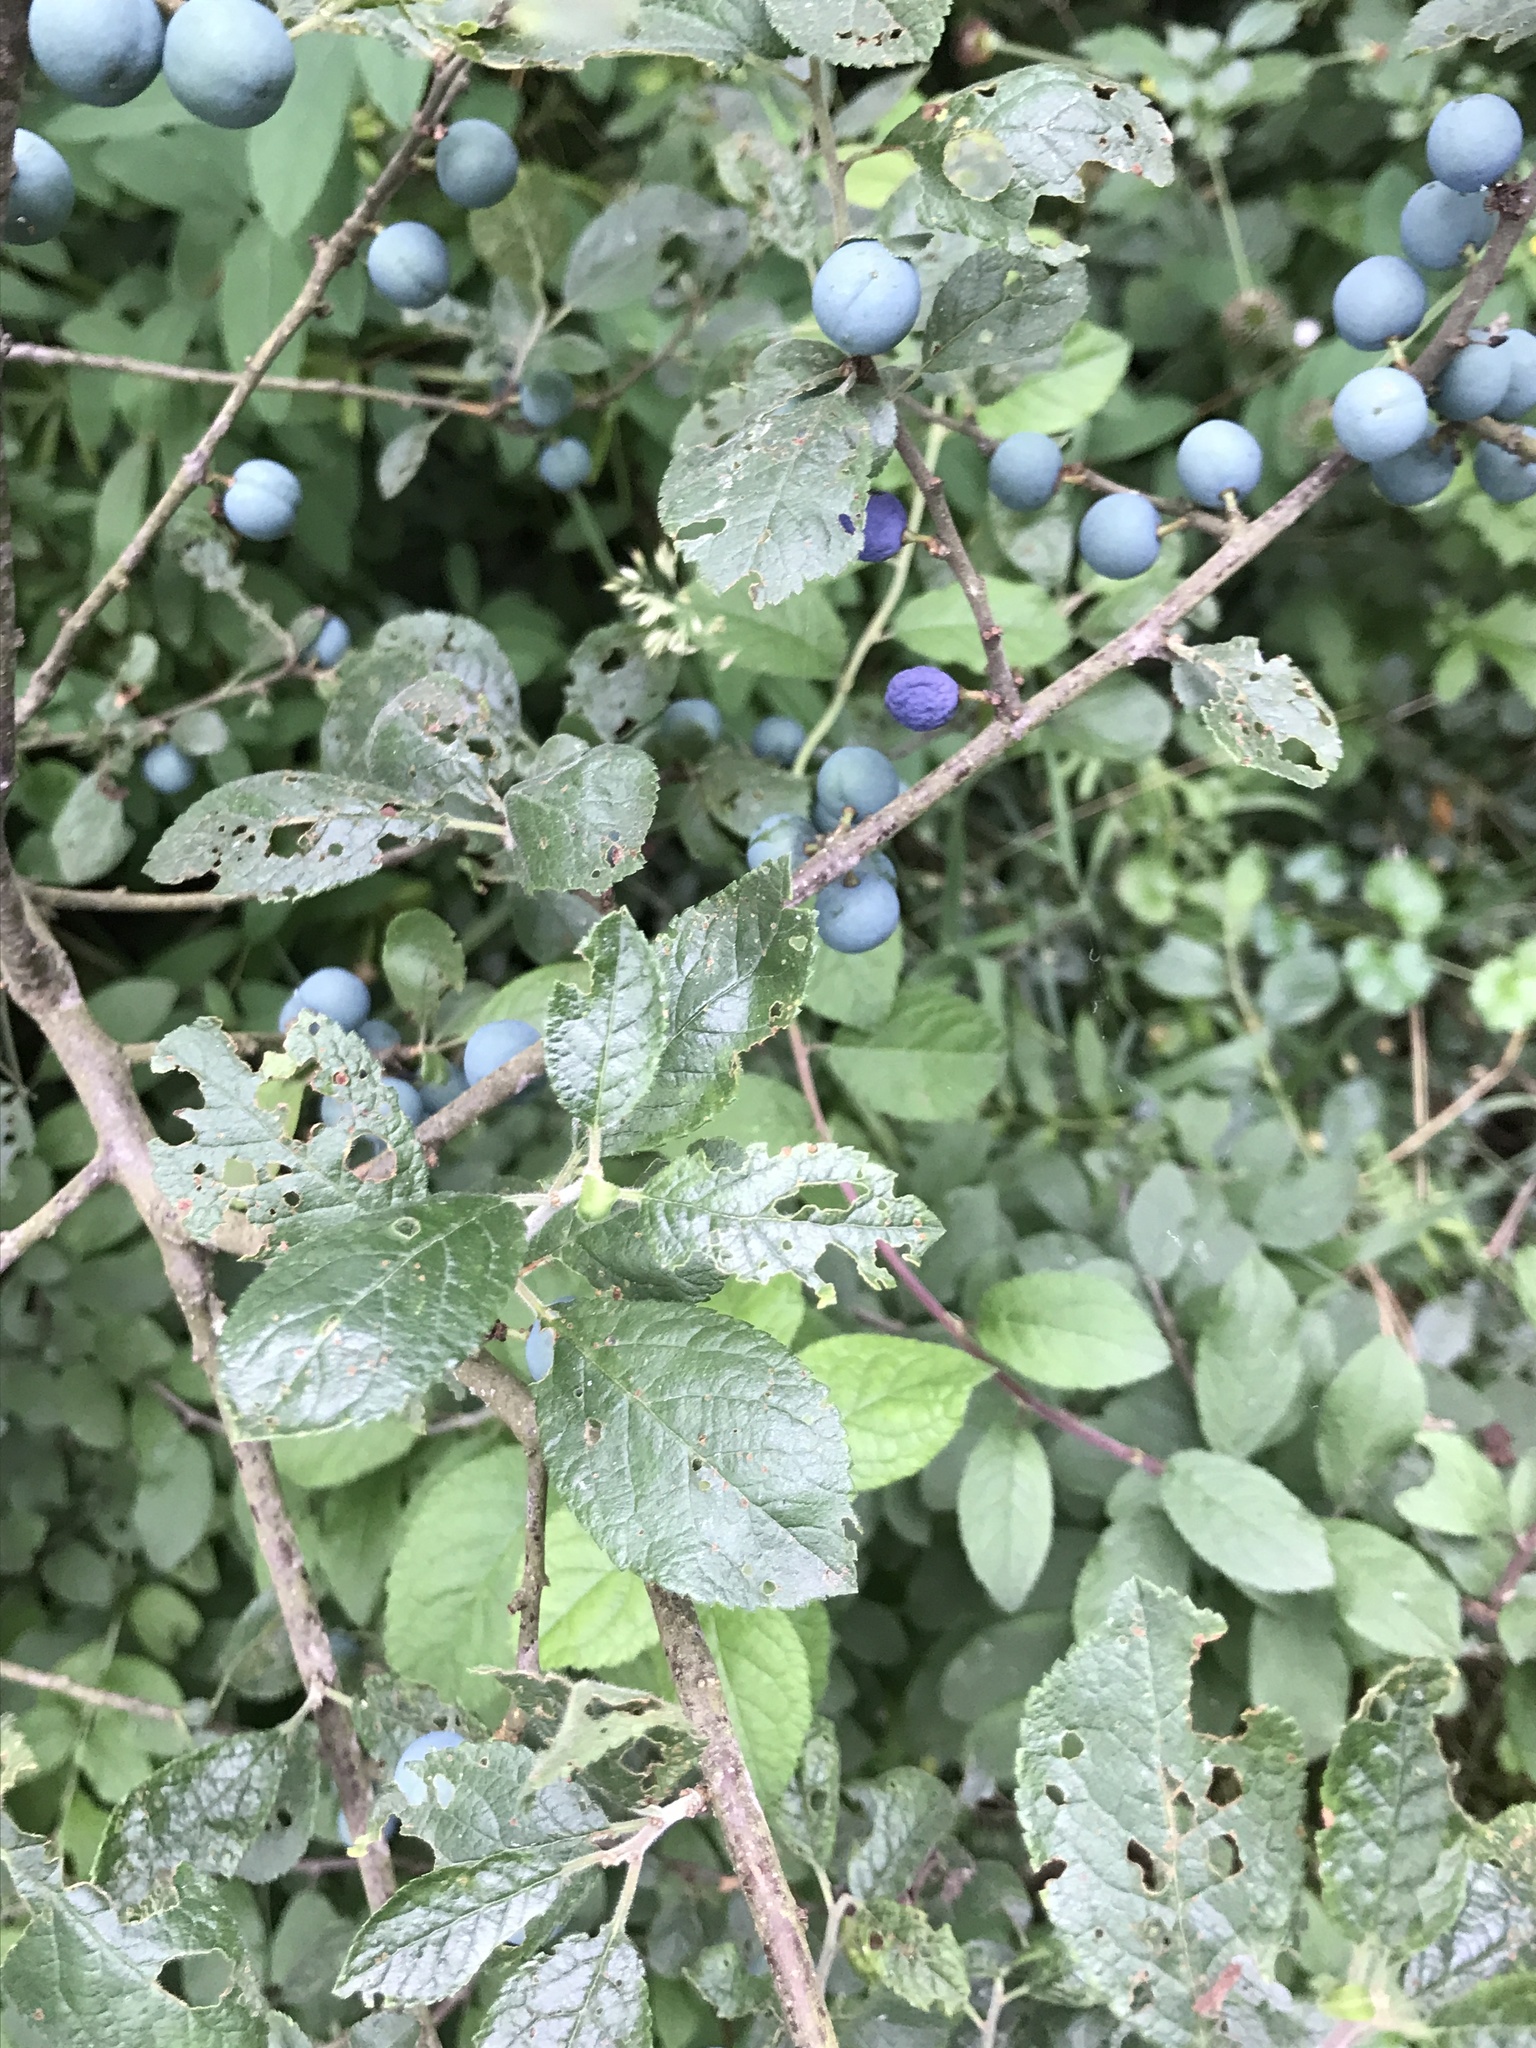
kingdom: Plantae
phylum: Tracheophyta
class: Magnoliopsida
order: Rosales
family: Rosaceae
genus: Prunus
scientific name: Prunus spinosa
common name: Blackthorn
